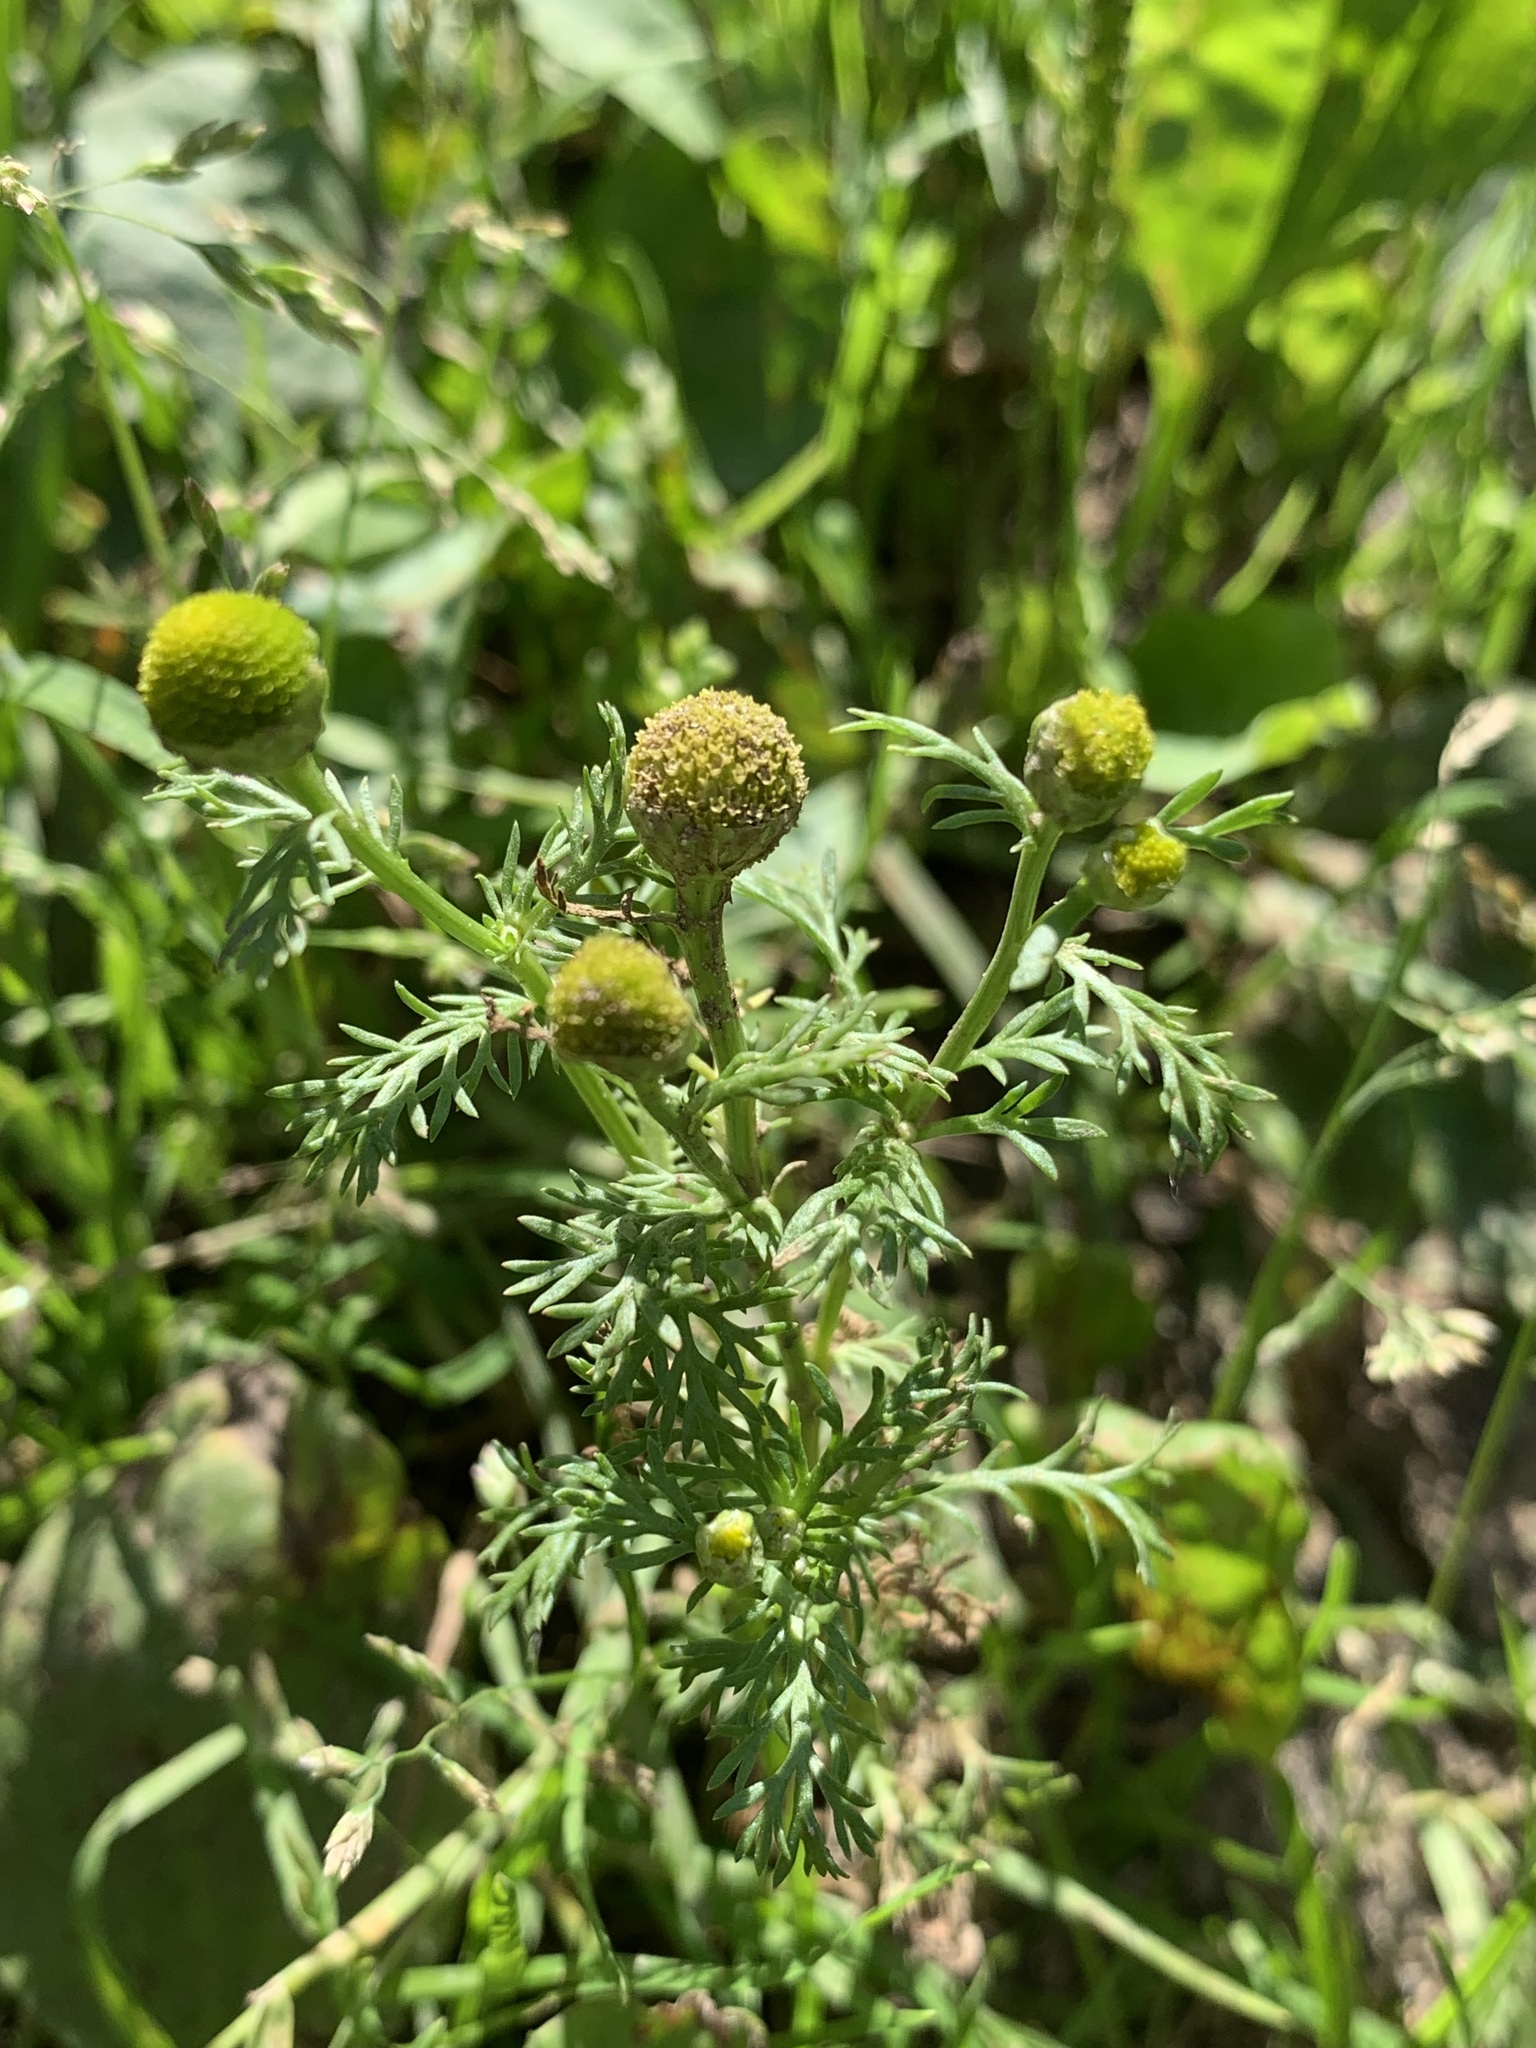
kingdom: Plantae
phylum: Tracheophyta
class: Magnoliopsida
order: Asterales
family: Asteraceae
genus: Matricaria
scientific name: Matricaria discoidea
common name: Disc mayweed
